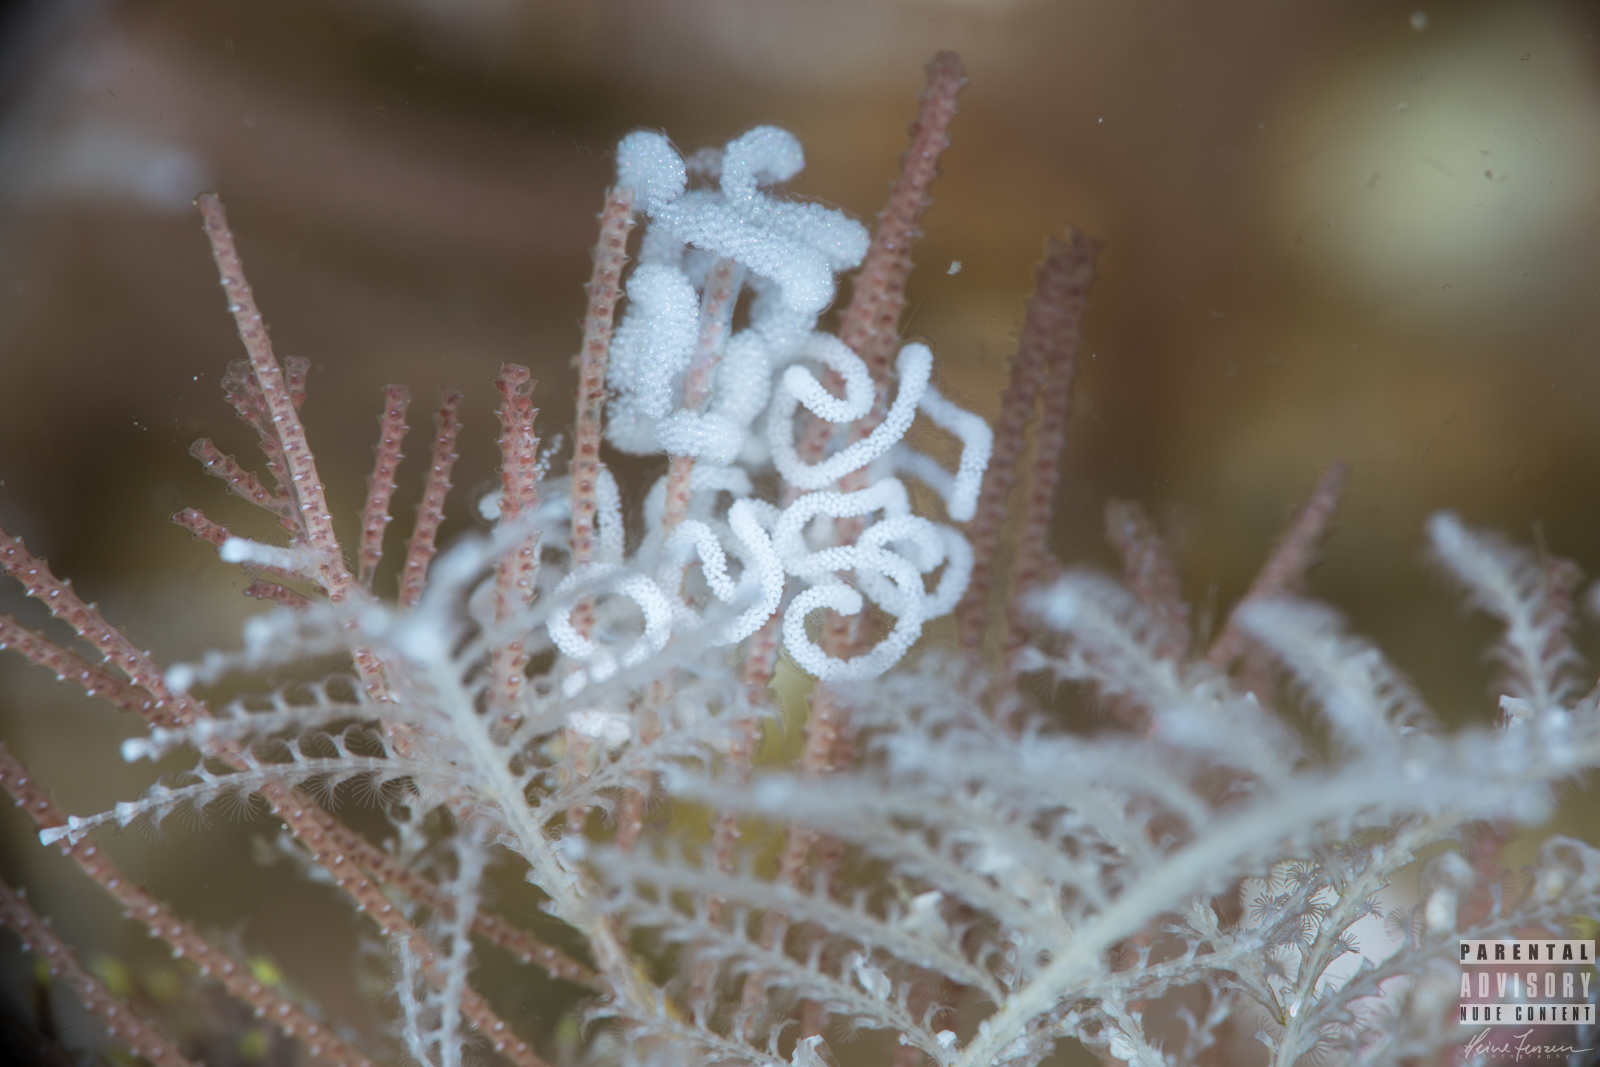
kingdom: Animalia
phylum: Mollusca
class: Gastropoda
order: Nudibranchia
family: Dendronotidae
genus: Dendronotus
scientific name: Dendronotus yrjargul
